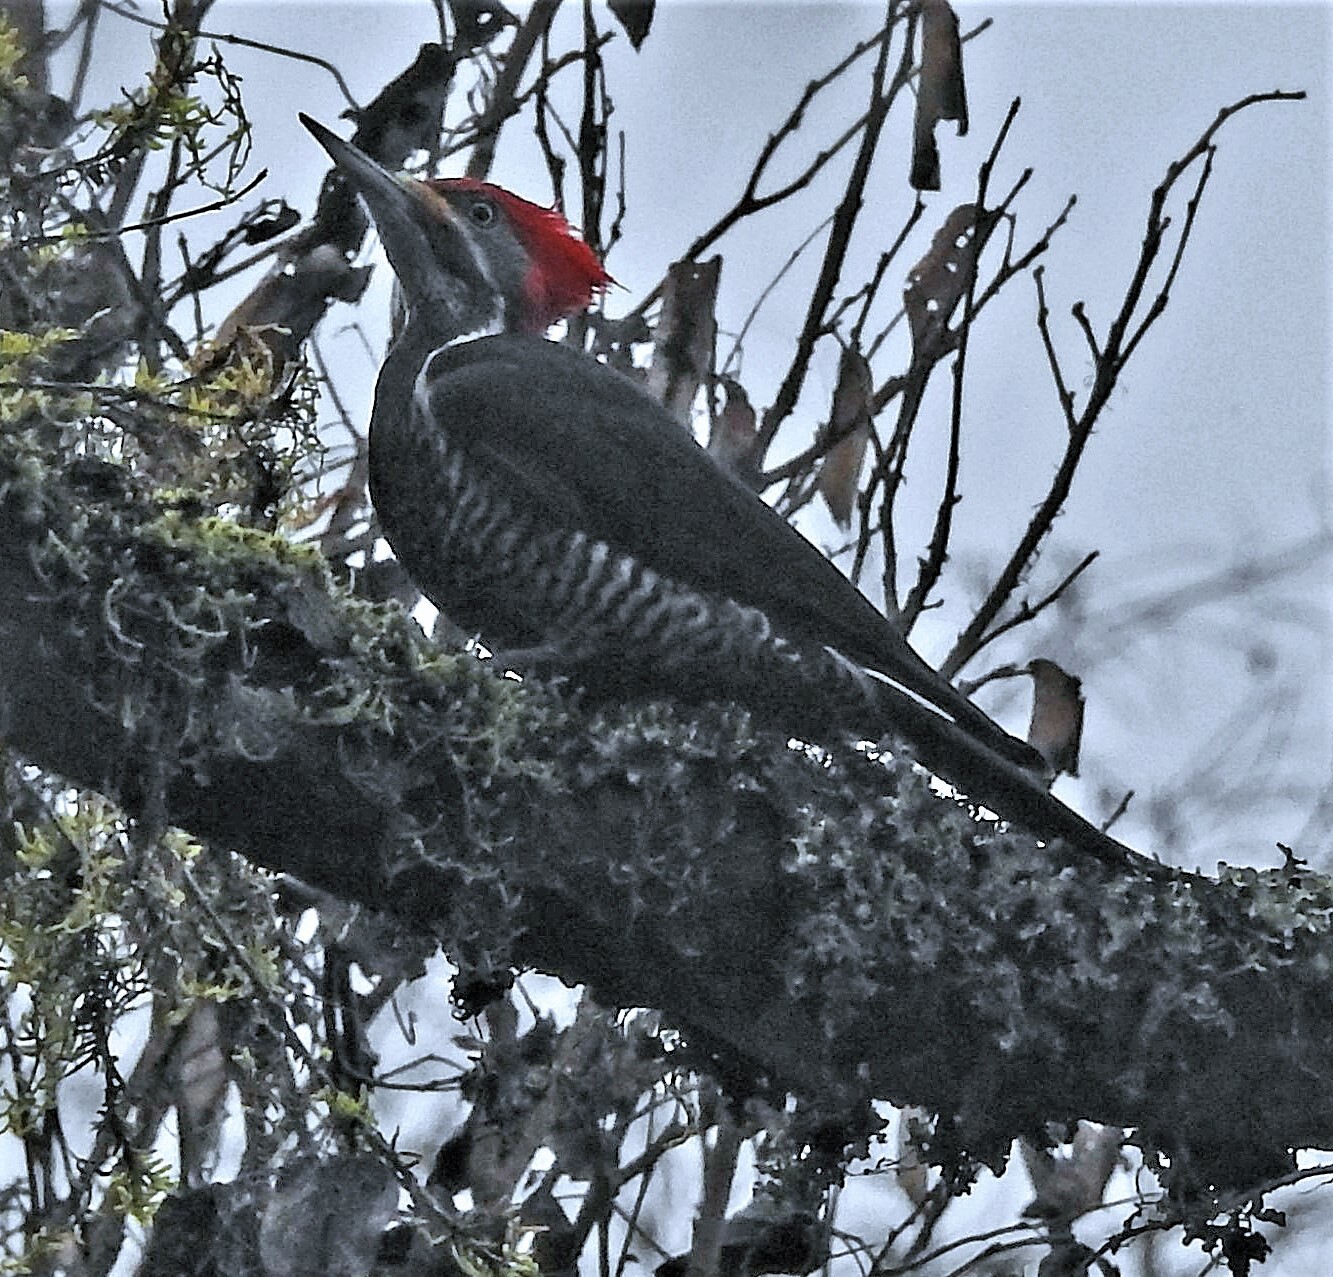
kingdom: Animalia
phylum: Chordata
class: Aves
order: Piciformes
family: Picidae
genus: Dryocopus
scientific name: Dryocopus lineatus
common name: Lineated woodpecker
